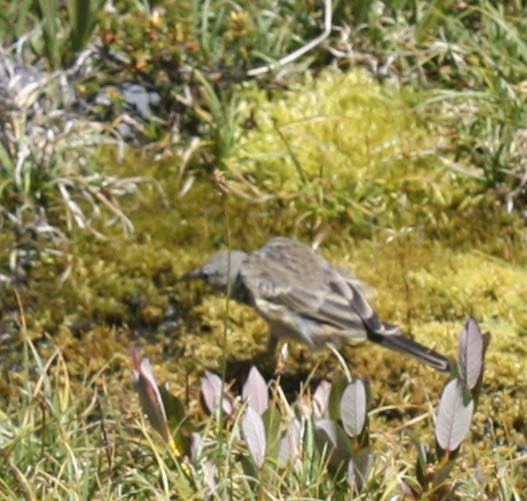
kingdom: Animalia
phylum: Chordata
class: Aves
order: Passeriformes
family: Motacillidae
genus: Anthus
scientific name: Anthus rubescens
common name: Buff-bellied pipit
